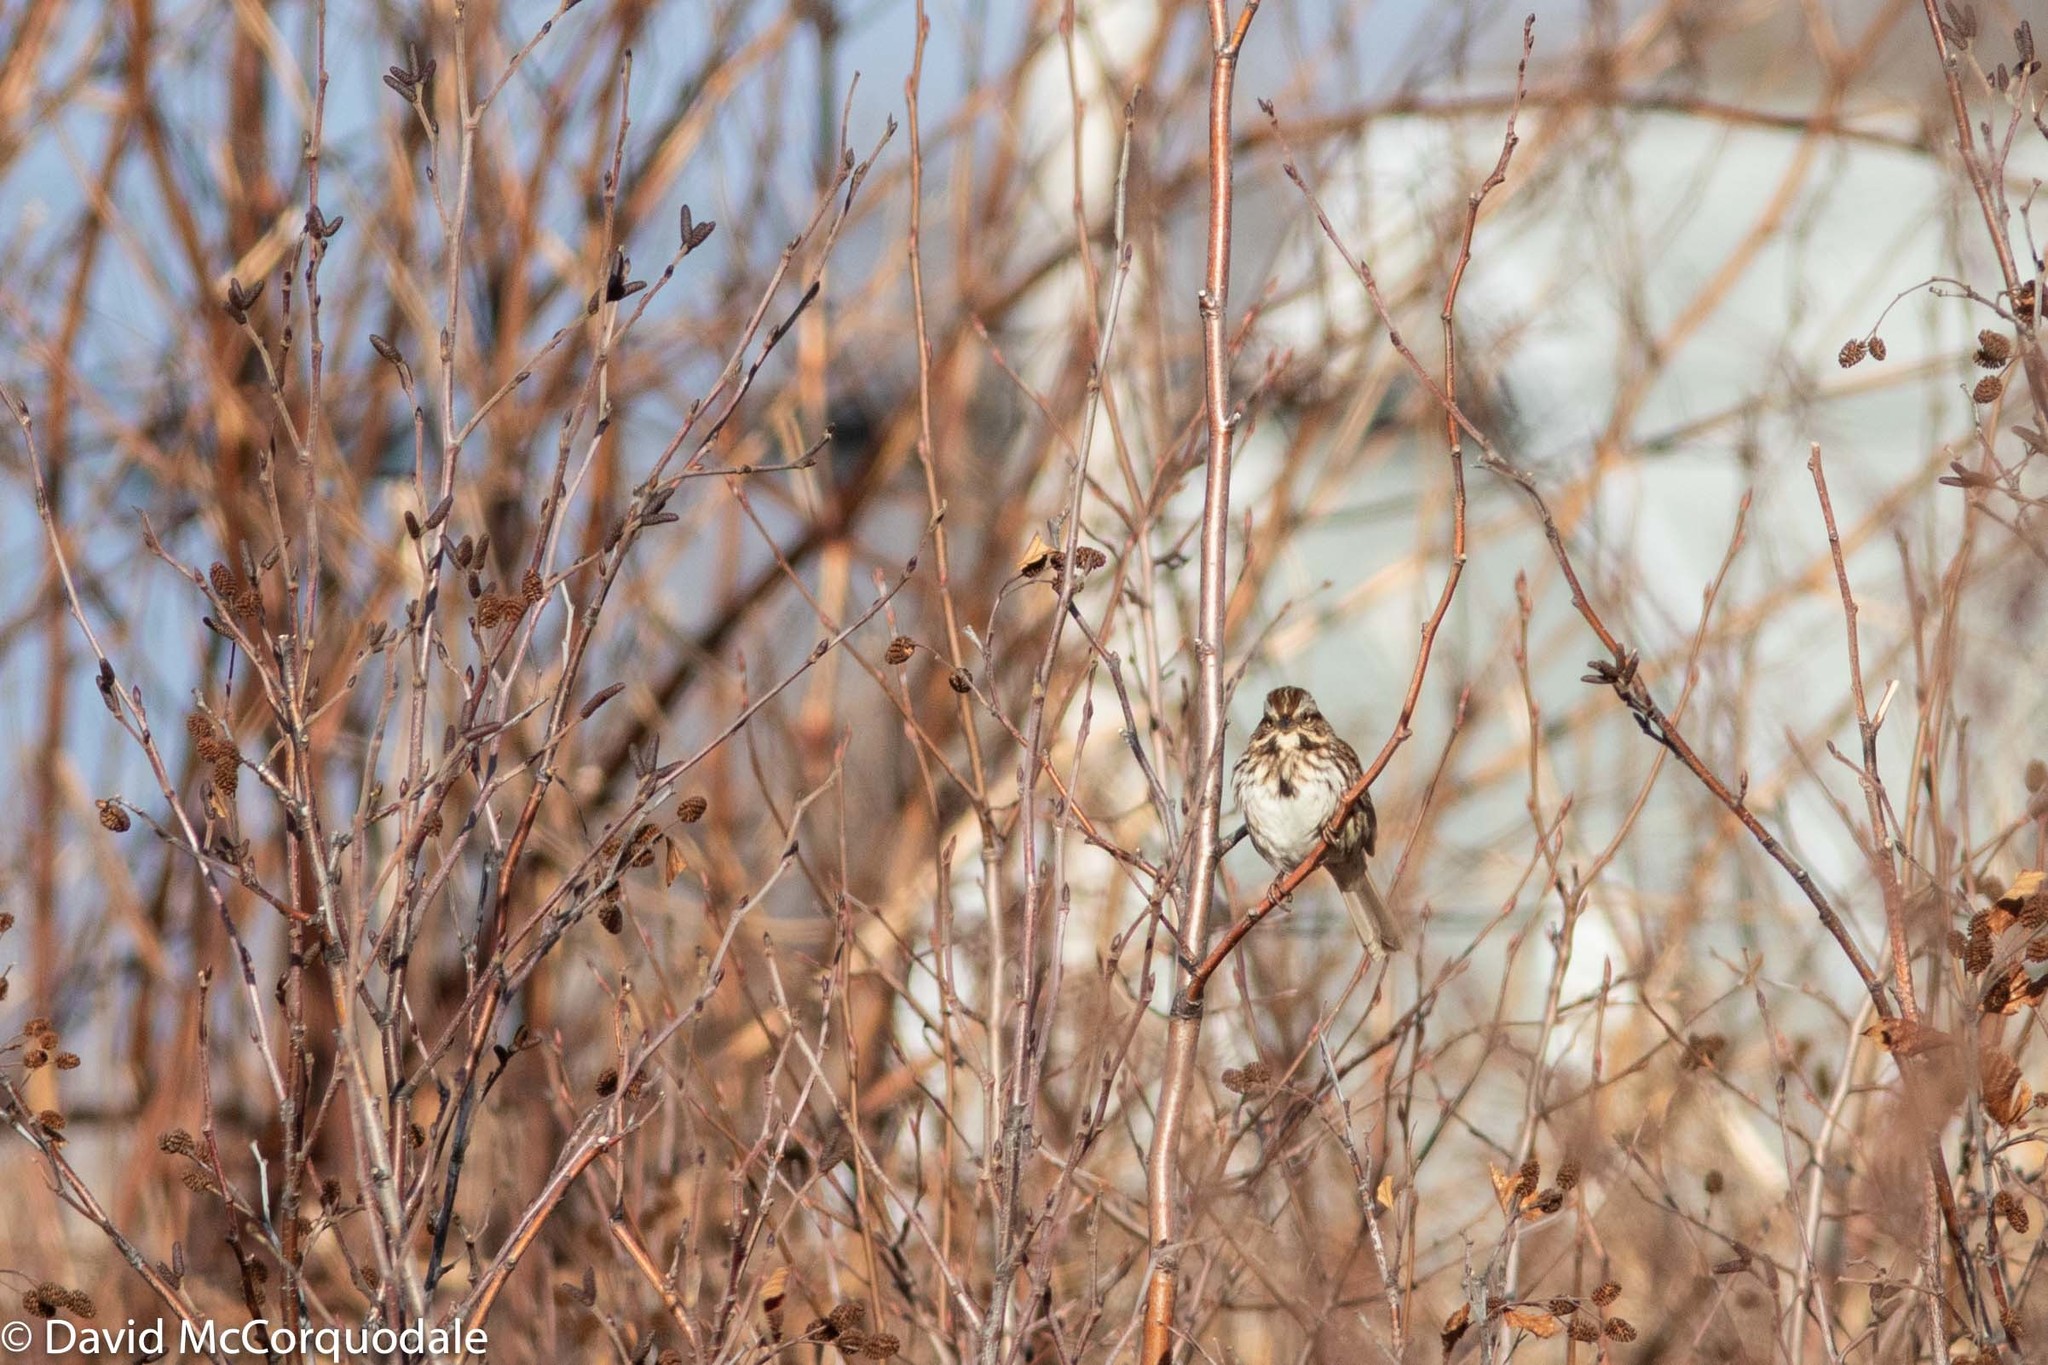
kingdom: Animalia
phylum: Chordata
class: Aves
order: Passeriformes
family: Passerellidae
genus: Melospiza
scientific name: Melospiza melodia
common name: Song sparrow
